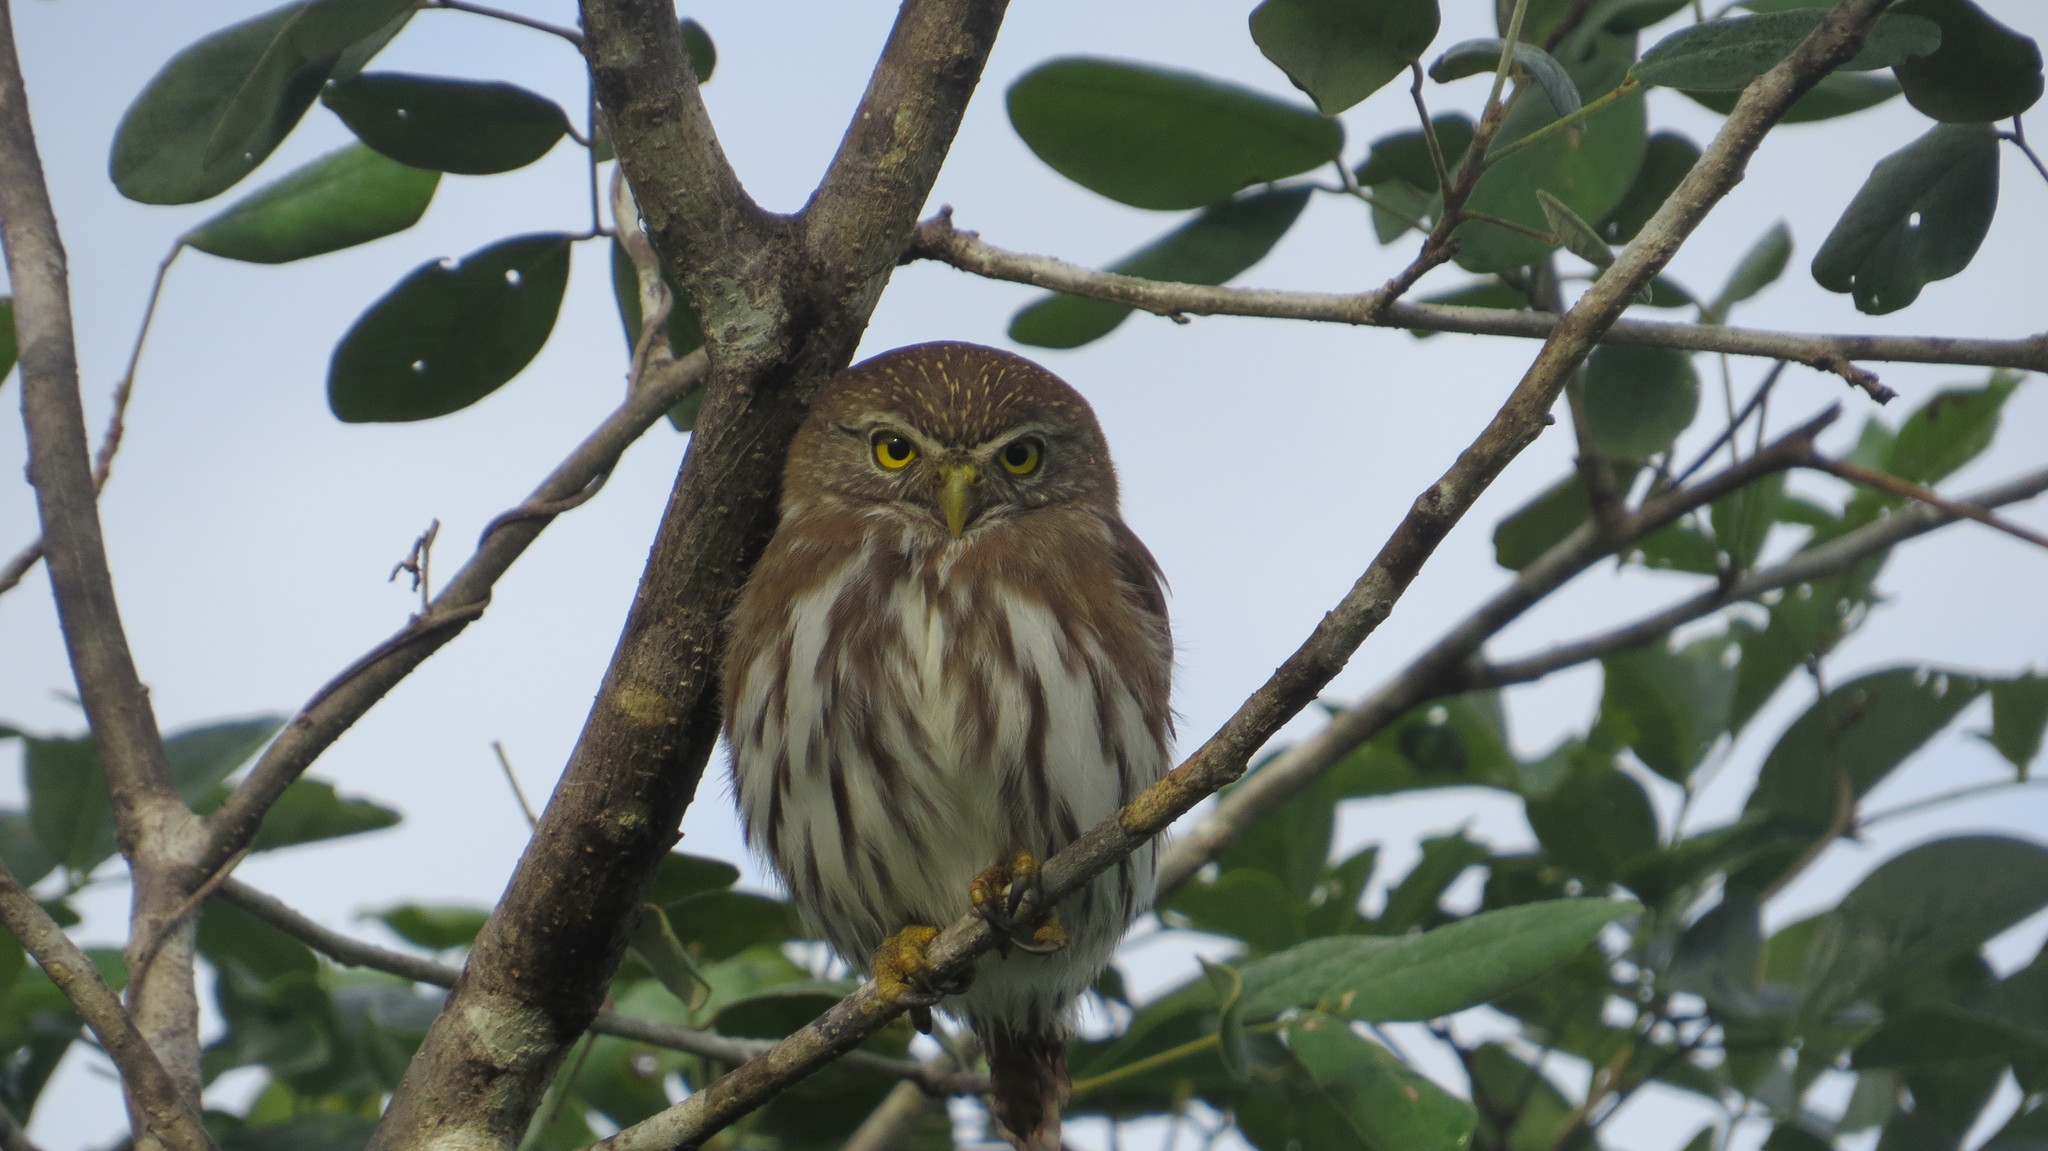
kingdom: Animalia
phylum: Chordata
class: Aves
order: Strigiformes
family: Strigidae
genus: Glaucidium
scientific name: Glaucidium brasilianum
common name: Ferruginous pygmy-owl
